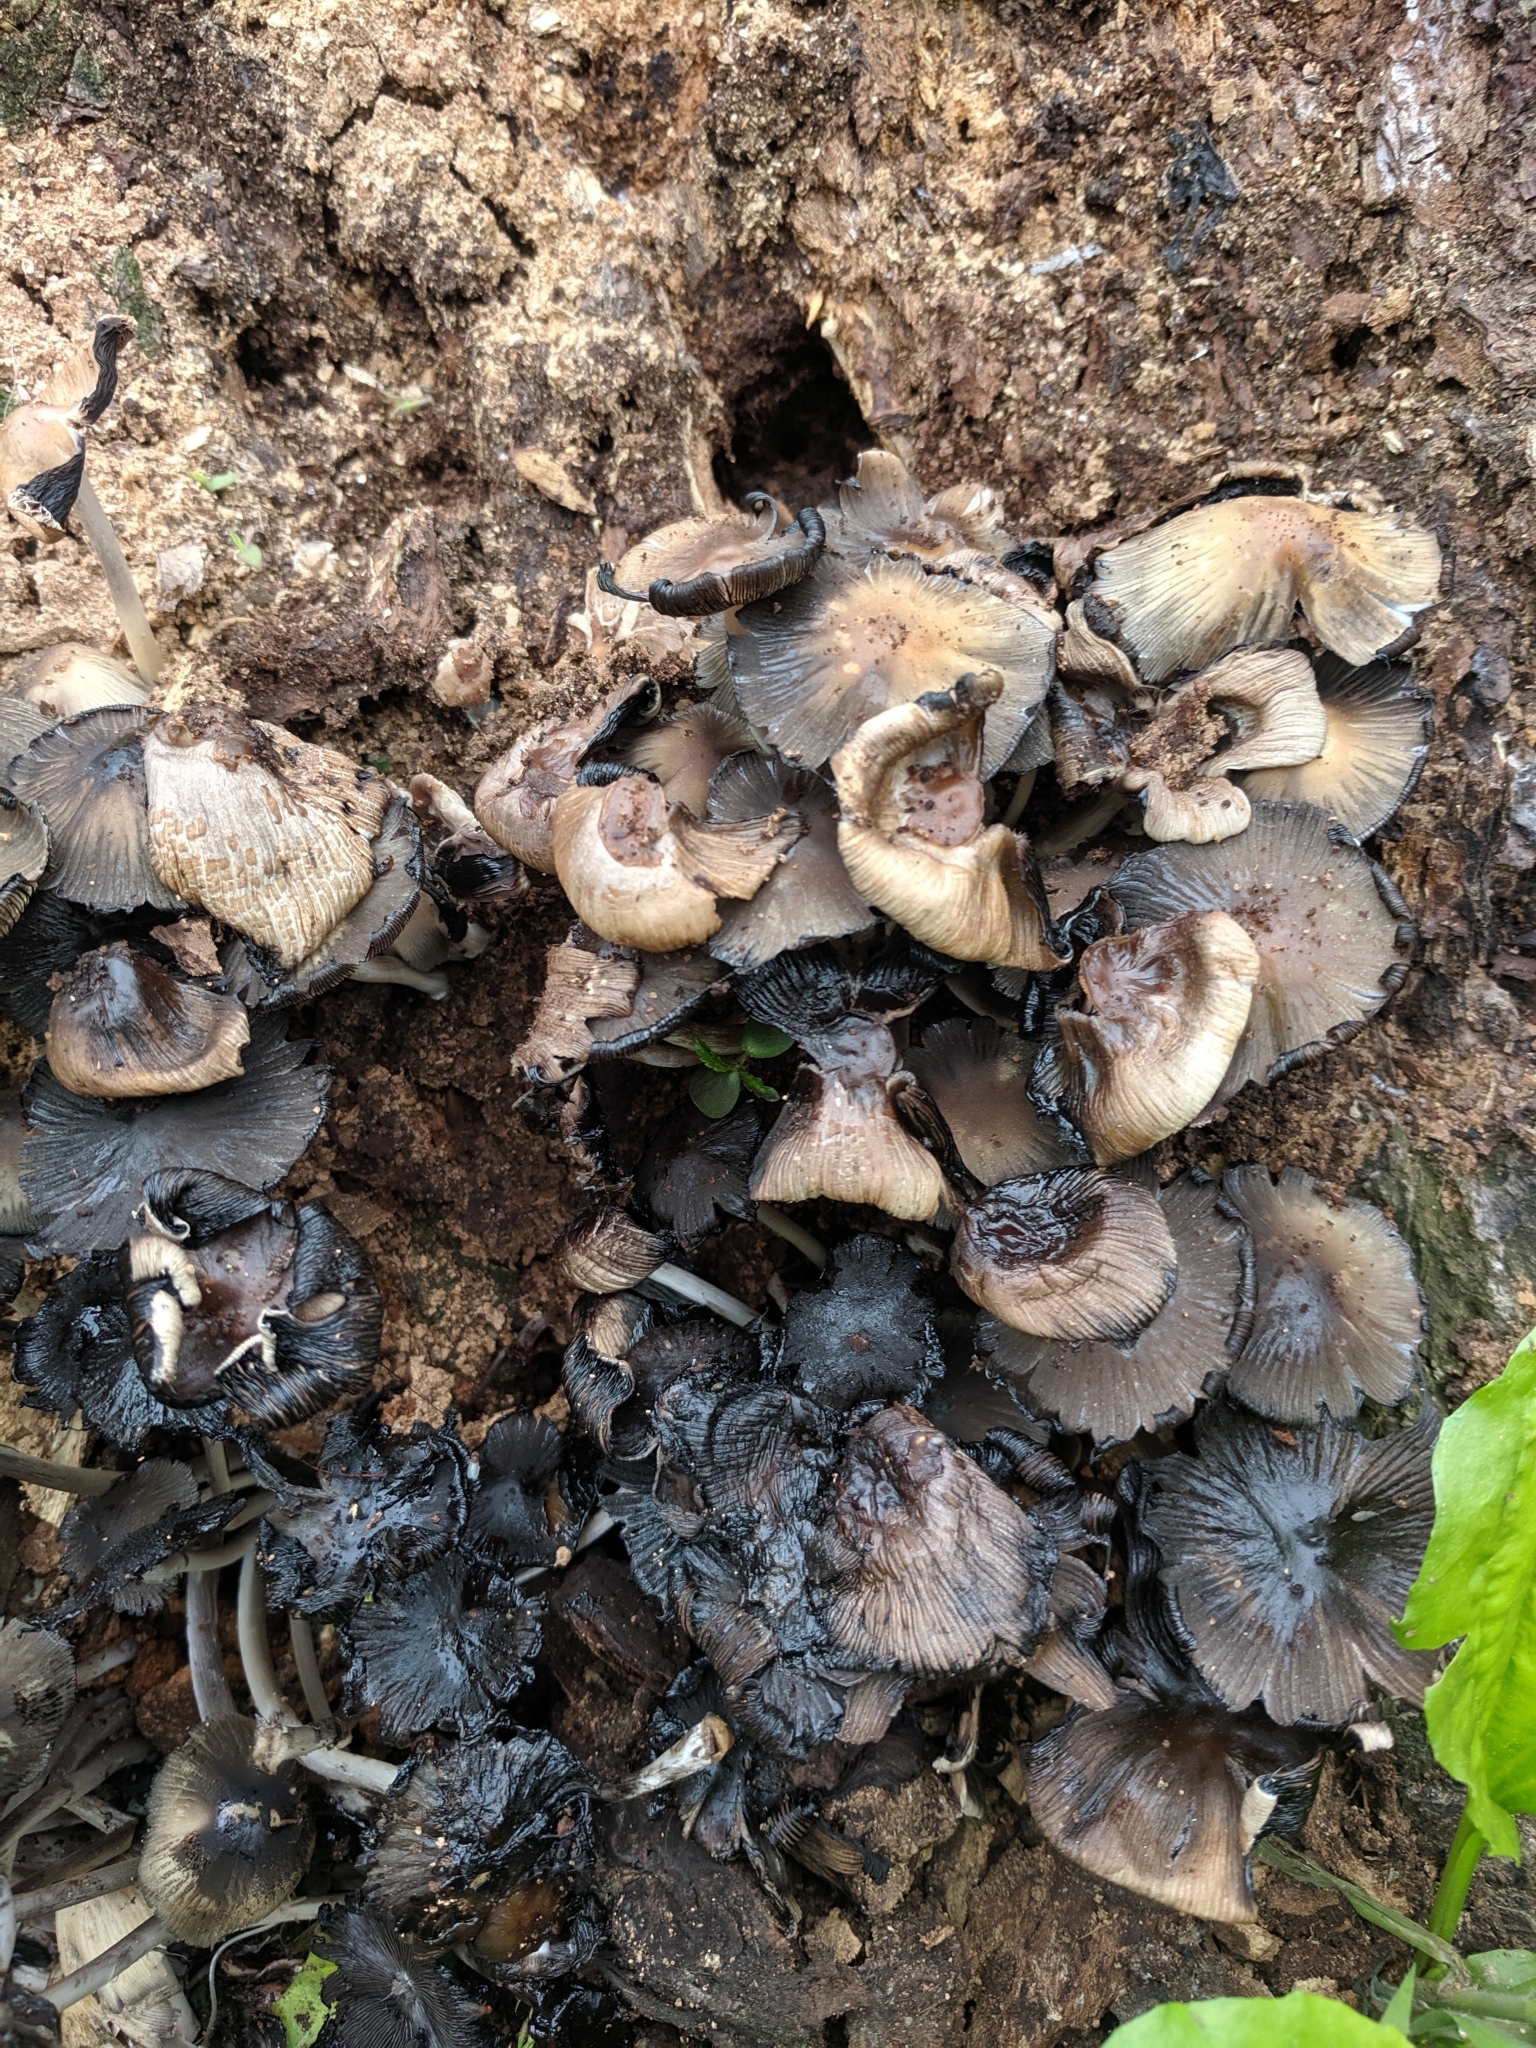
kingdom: Fungi
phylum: Basidiomycota
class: Agaricomycetes
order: Agaricales
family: Psathyrellaceae
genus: Coprinopsis
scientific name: Coprinopsis variegata
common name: Scaly ink cap
